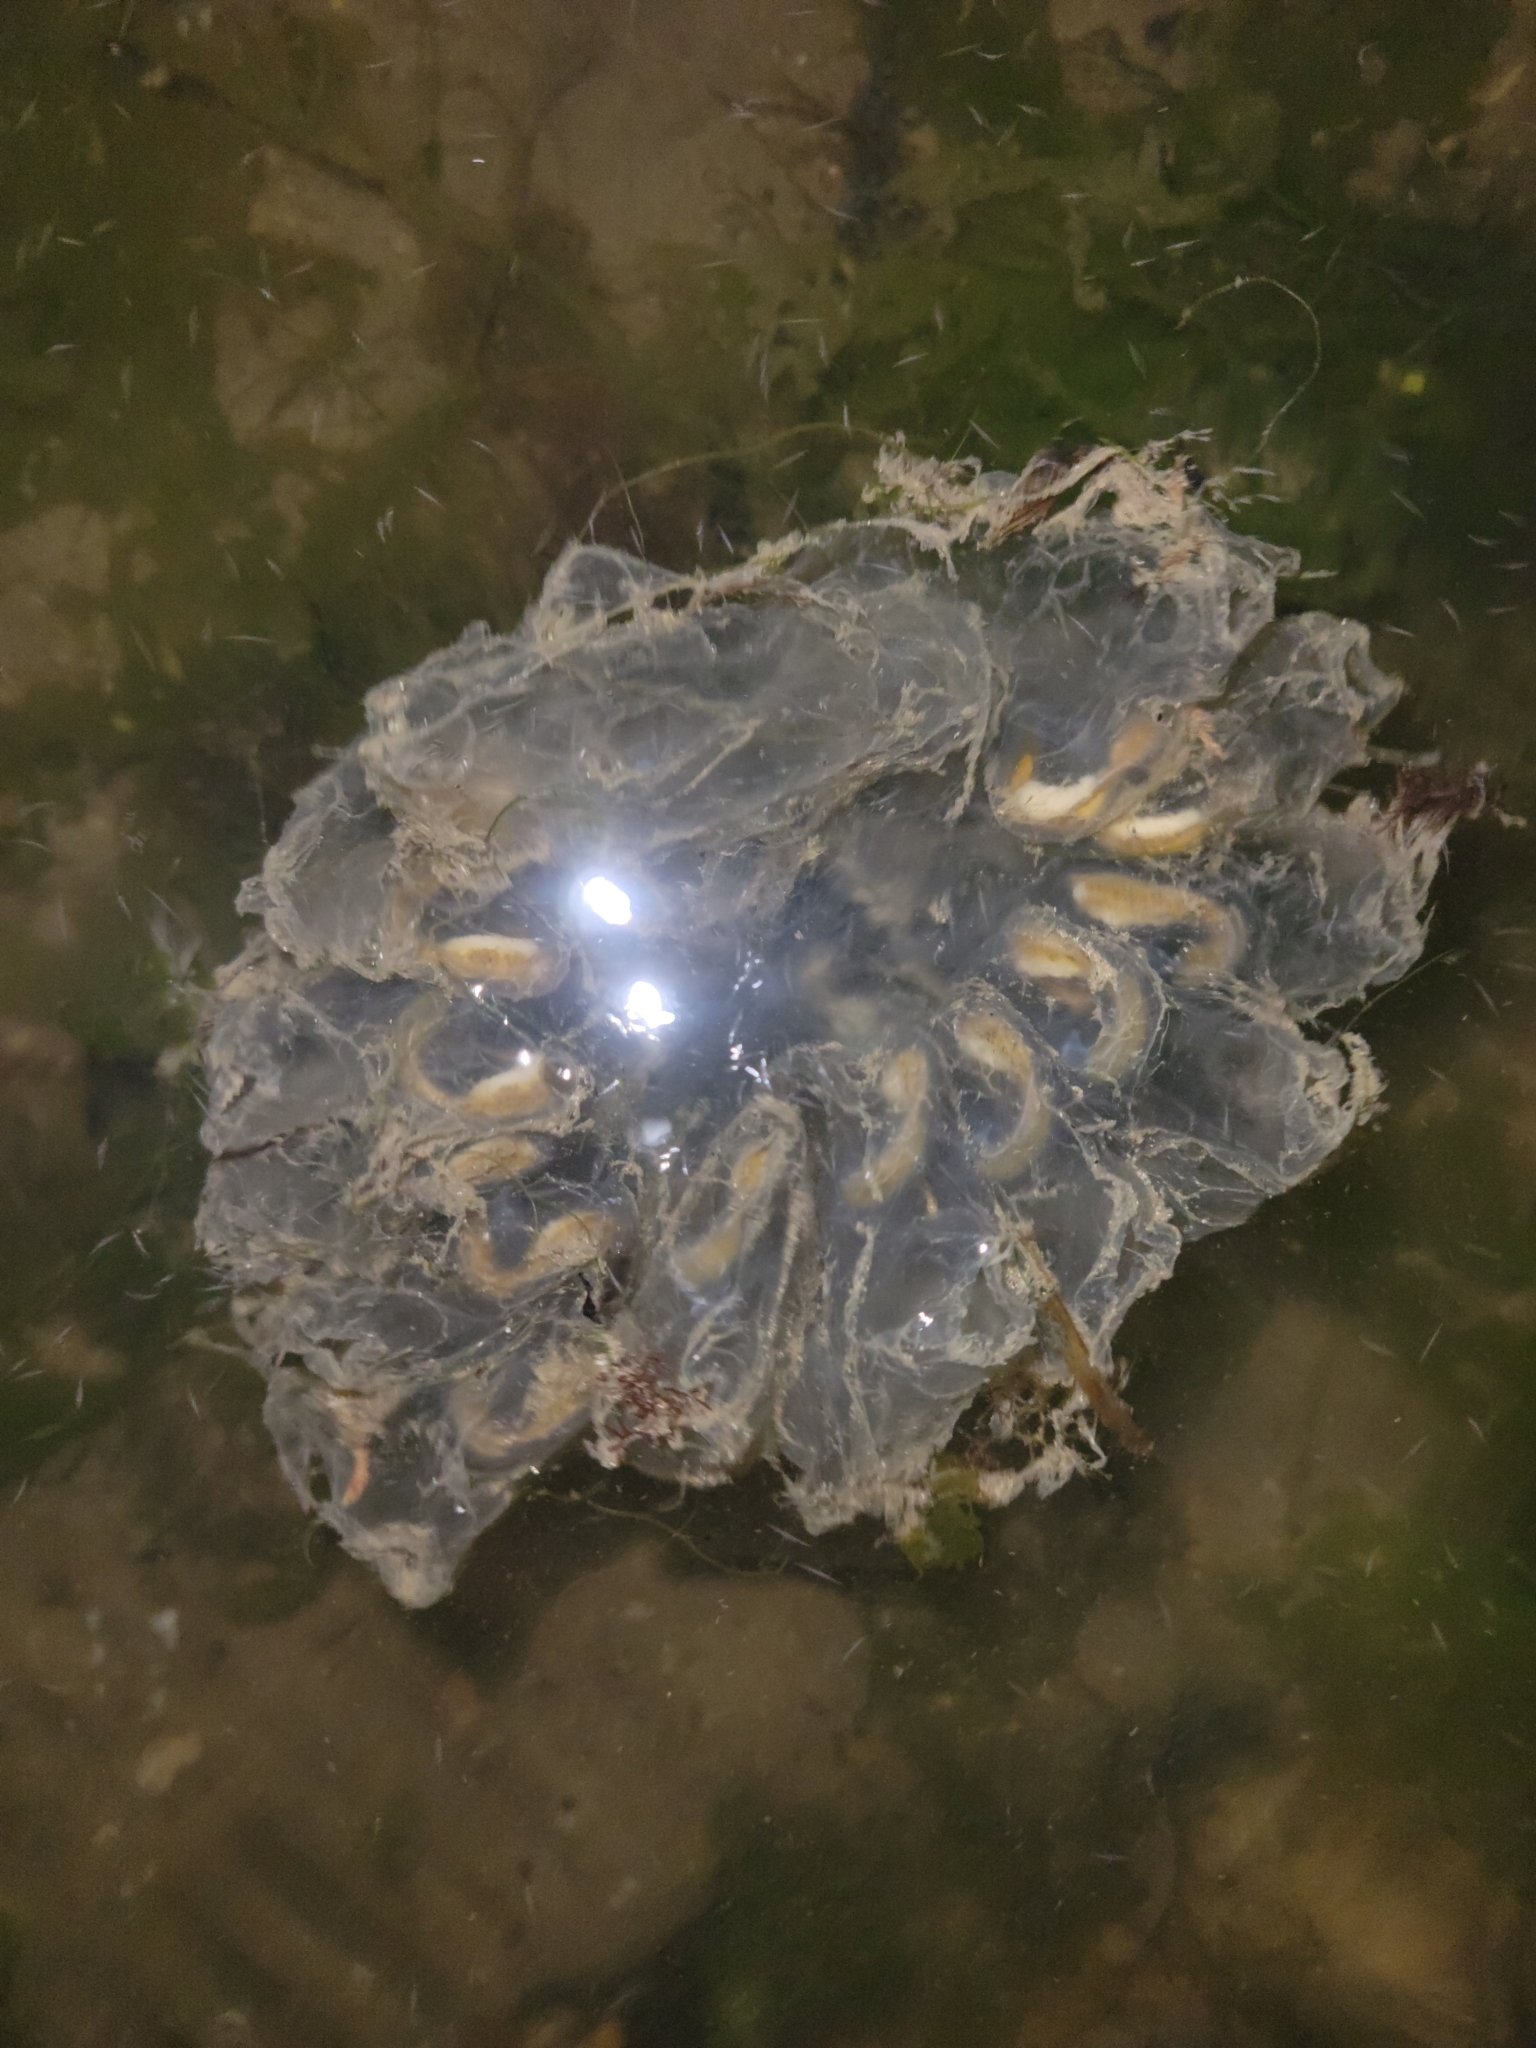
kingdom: Animalia
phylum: Chordata
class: Thaliacea
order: Salpida
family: Salpidae
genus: Cyclosalpa
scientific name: Cyclosalpa affinis
